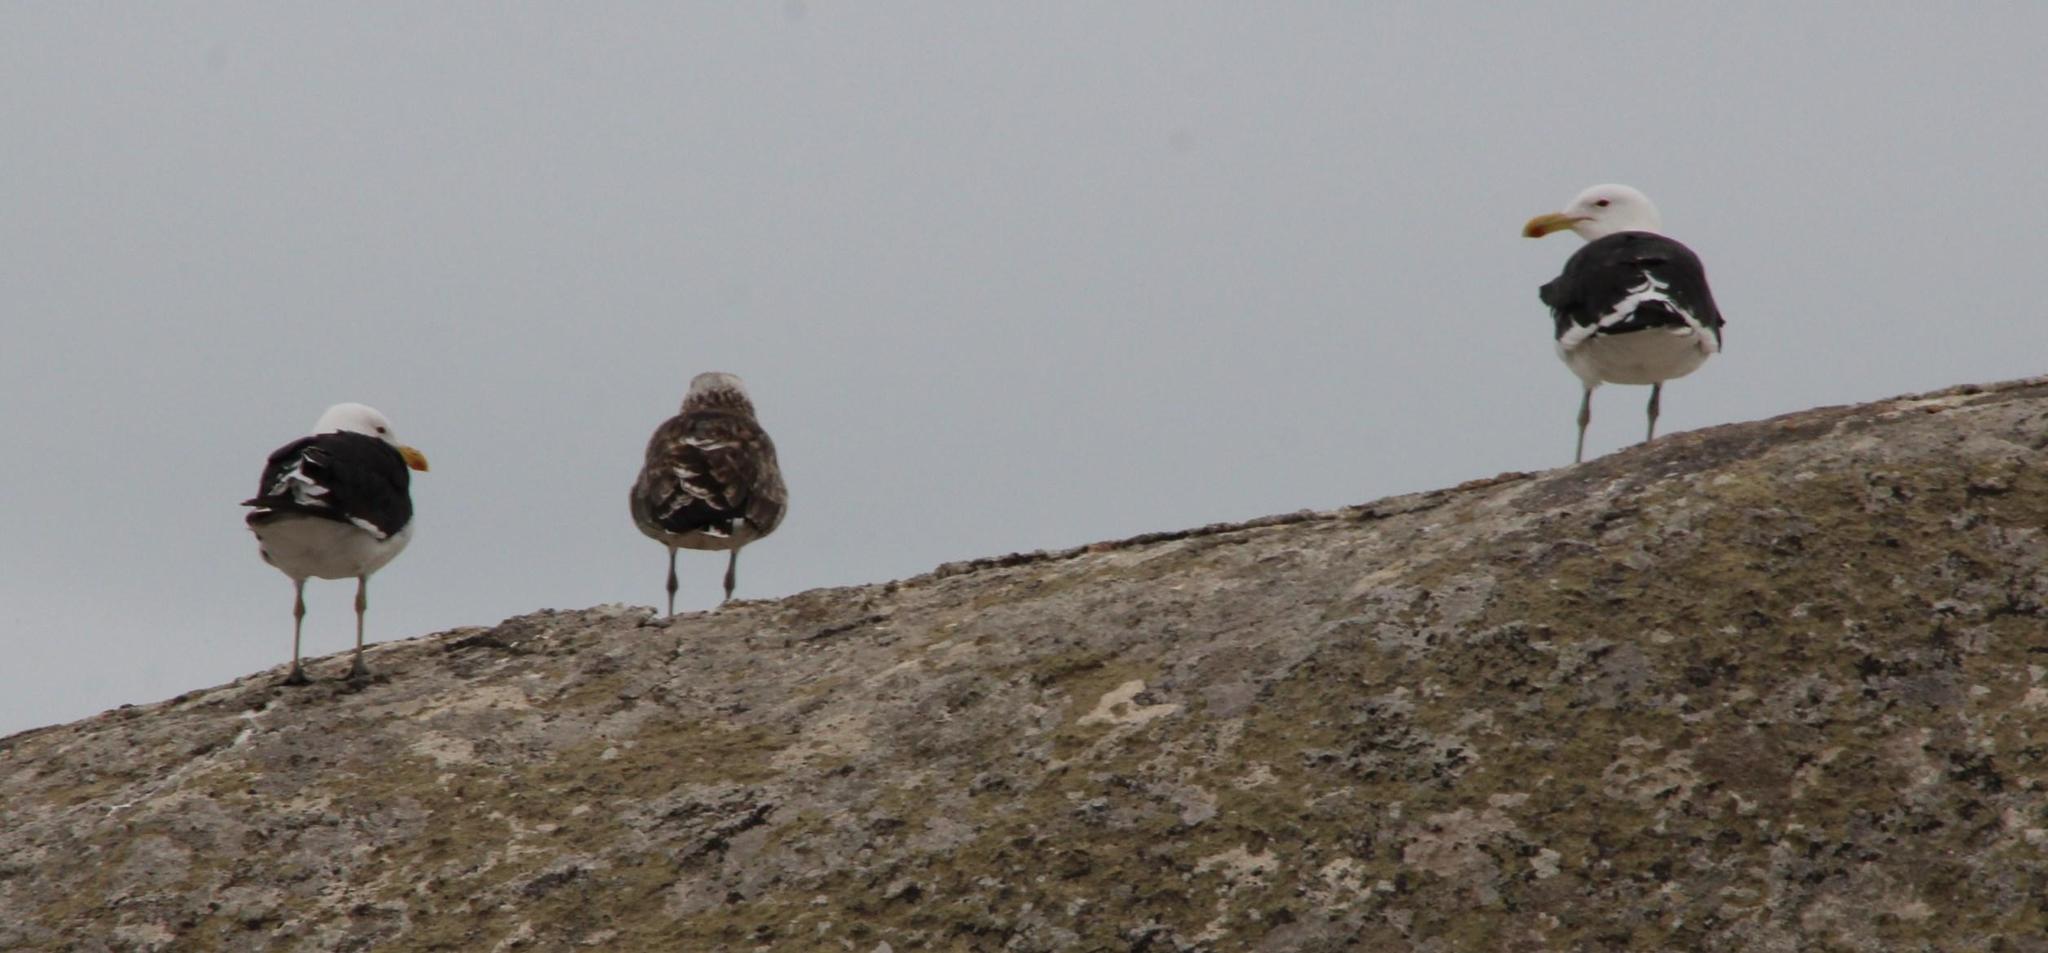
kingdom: Animalia
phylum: Chordata
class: Aves
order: Charadriiformes
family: Laridae
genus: Larus
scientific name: Larus dominicanus
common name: Kelp gull
